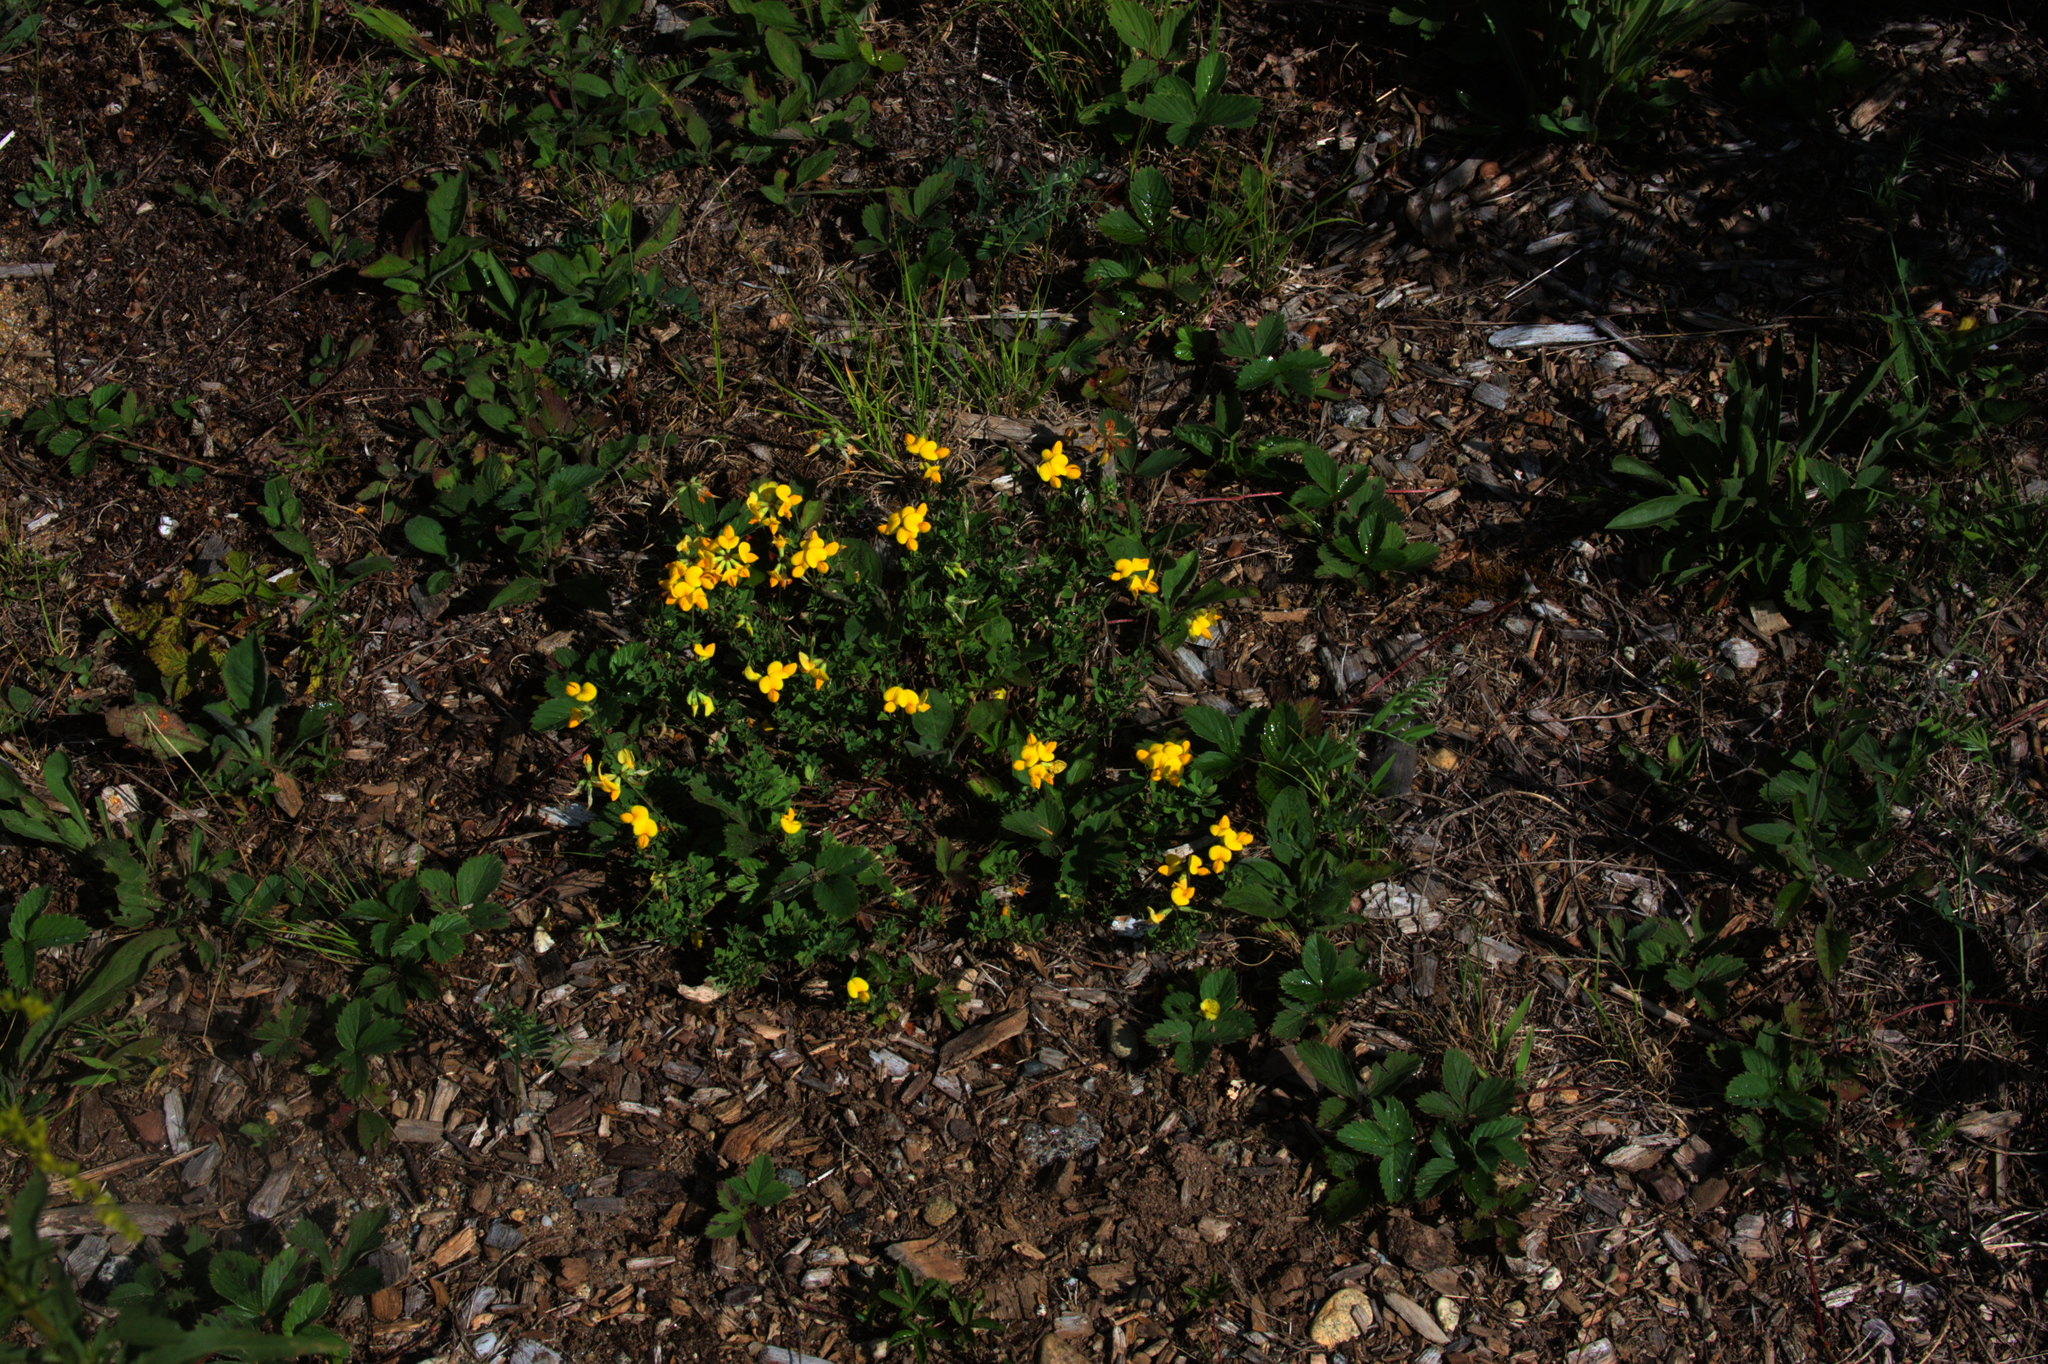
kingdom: Plantae
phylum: Tracheophyta
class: Magnoliopsida
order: Fabales
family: Fabaceae
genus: Lotus
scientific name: Lotus corniculatus
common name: Common bird's-foot-trefoil
